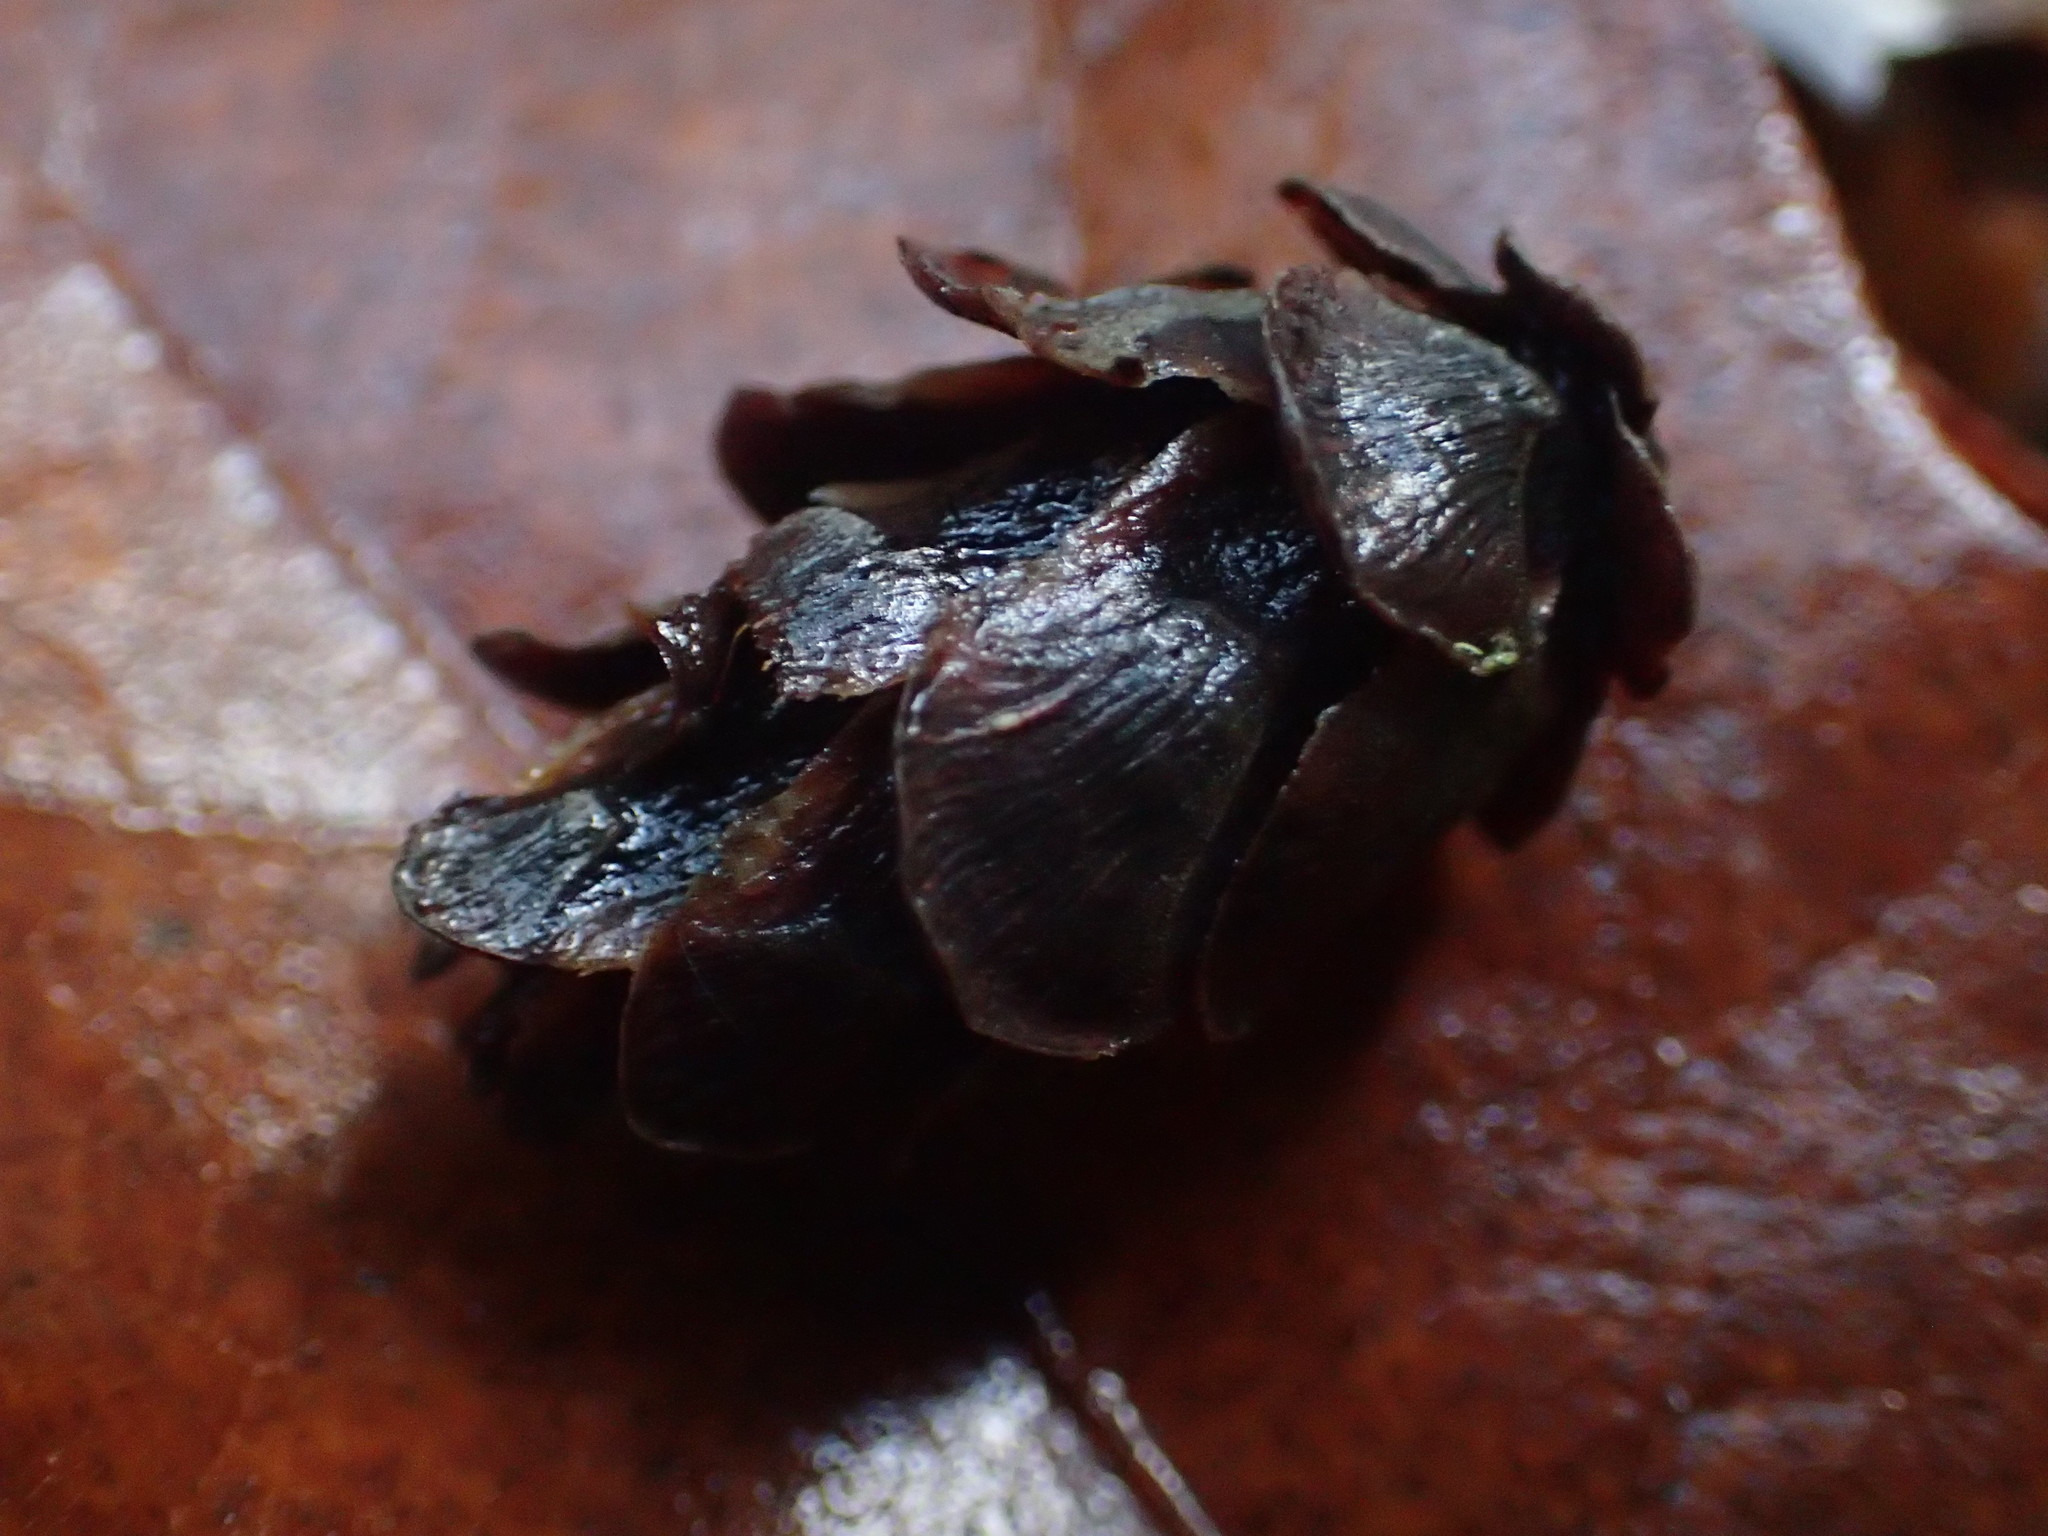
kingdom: Plantae
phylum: Tracheophyta
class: Pinopsida
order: Pinales
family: Pinaceae
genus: Tsuga
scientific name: Tsuga heterophylla
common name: Western hemlock
